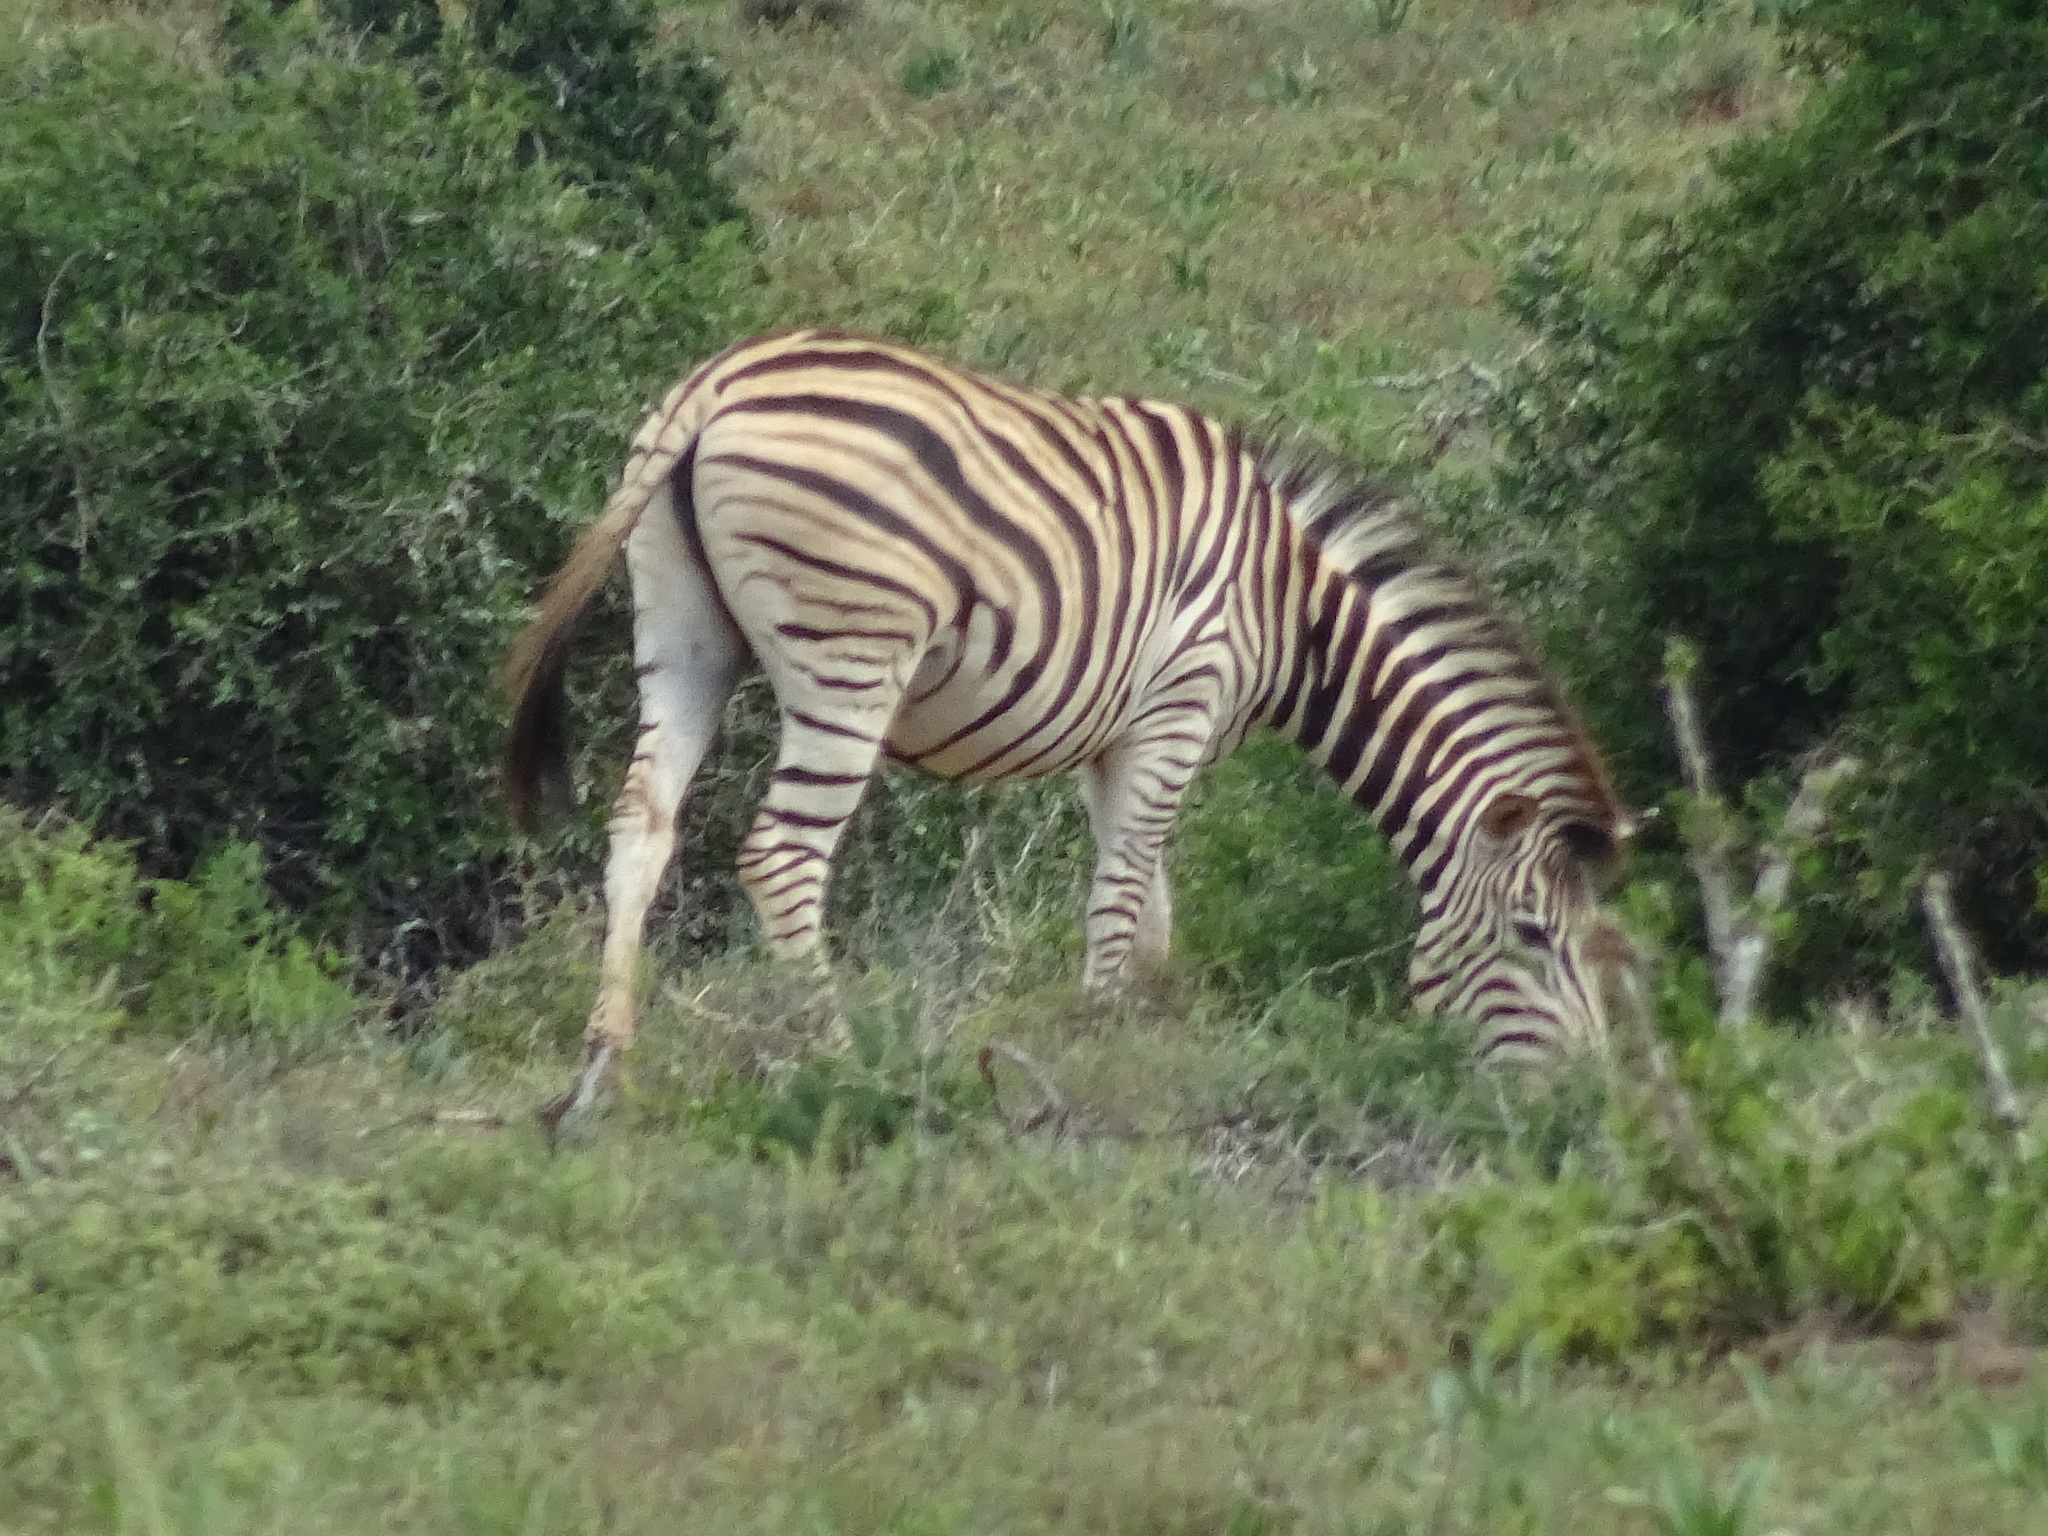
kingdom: Animalia
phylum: Chordata
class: Mammalia
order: Perissodactyla
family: Equidae
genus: Equus
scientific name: Equus quagga
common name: Plains zebra
